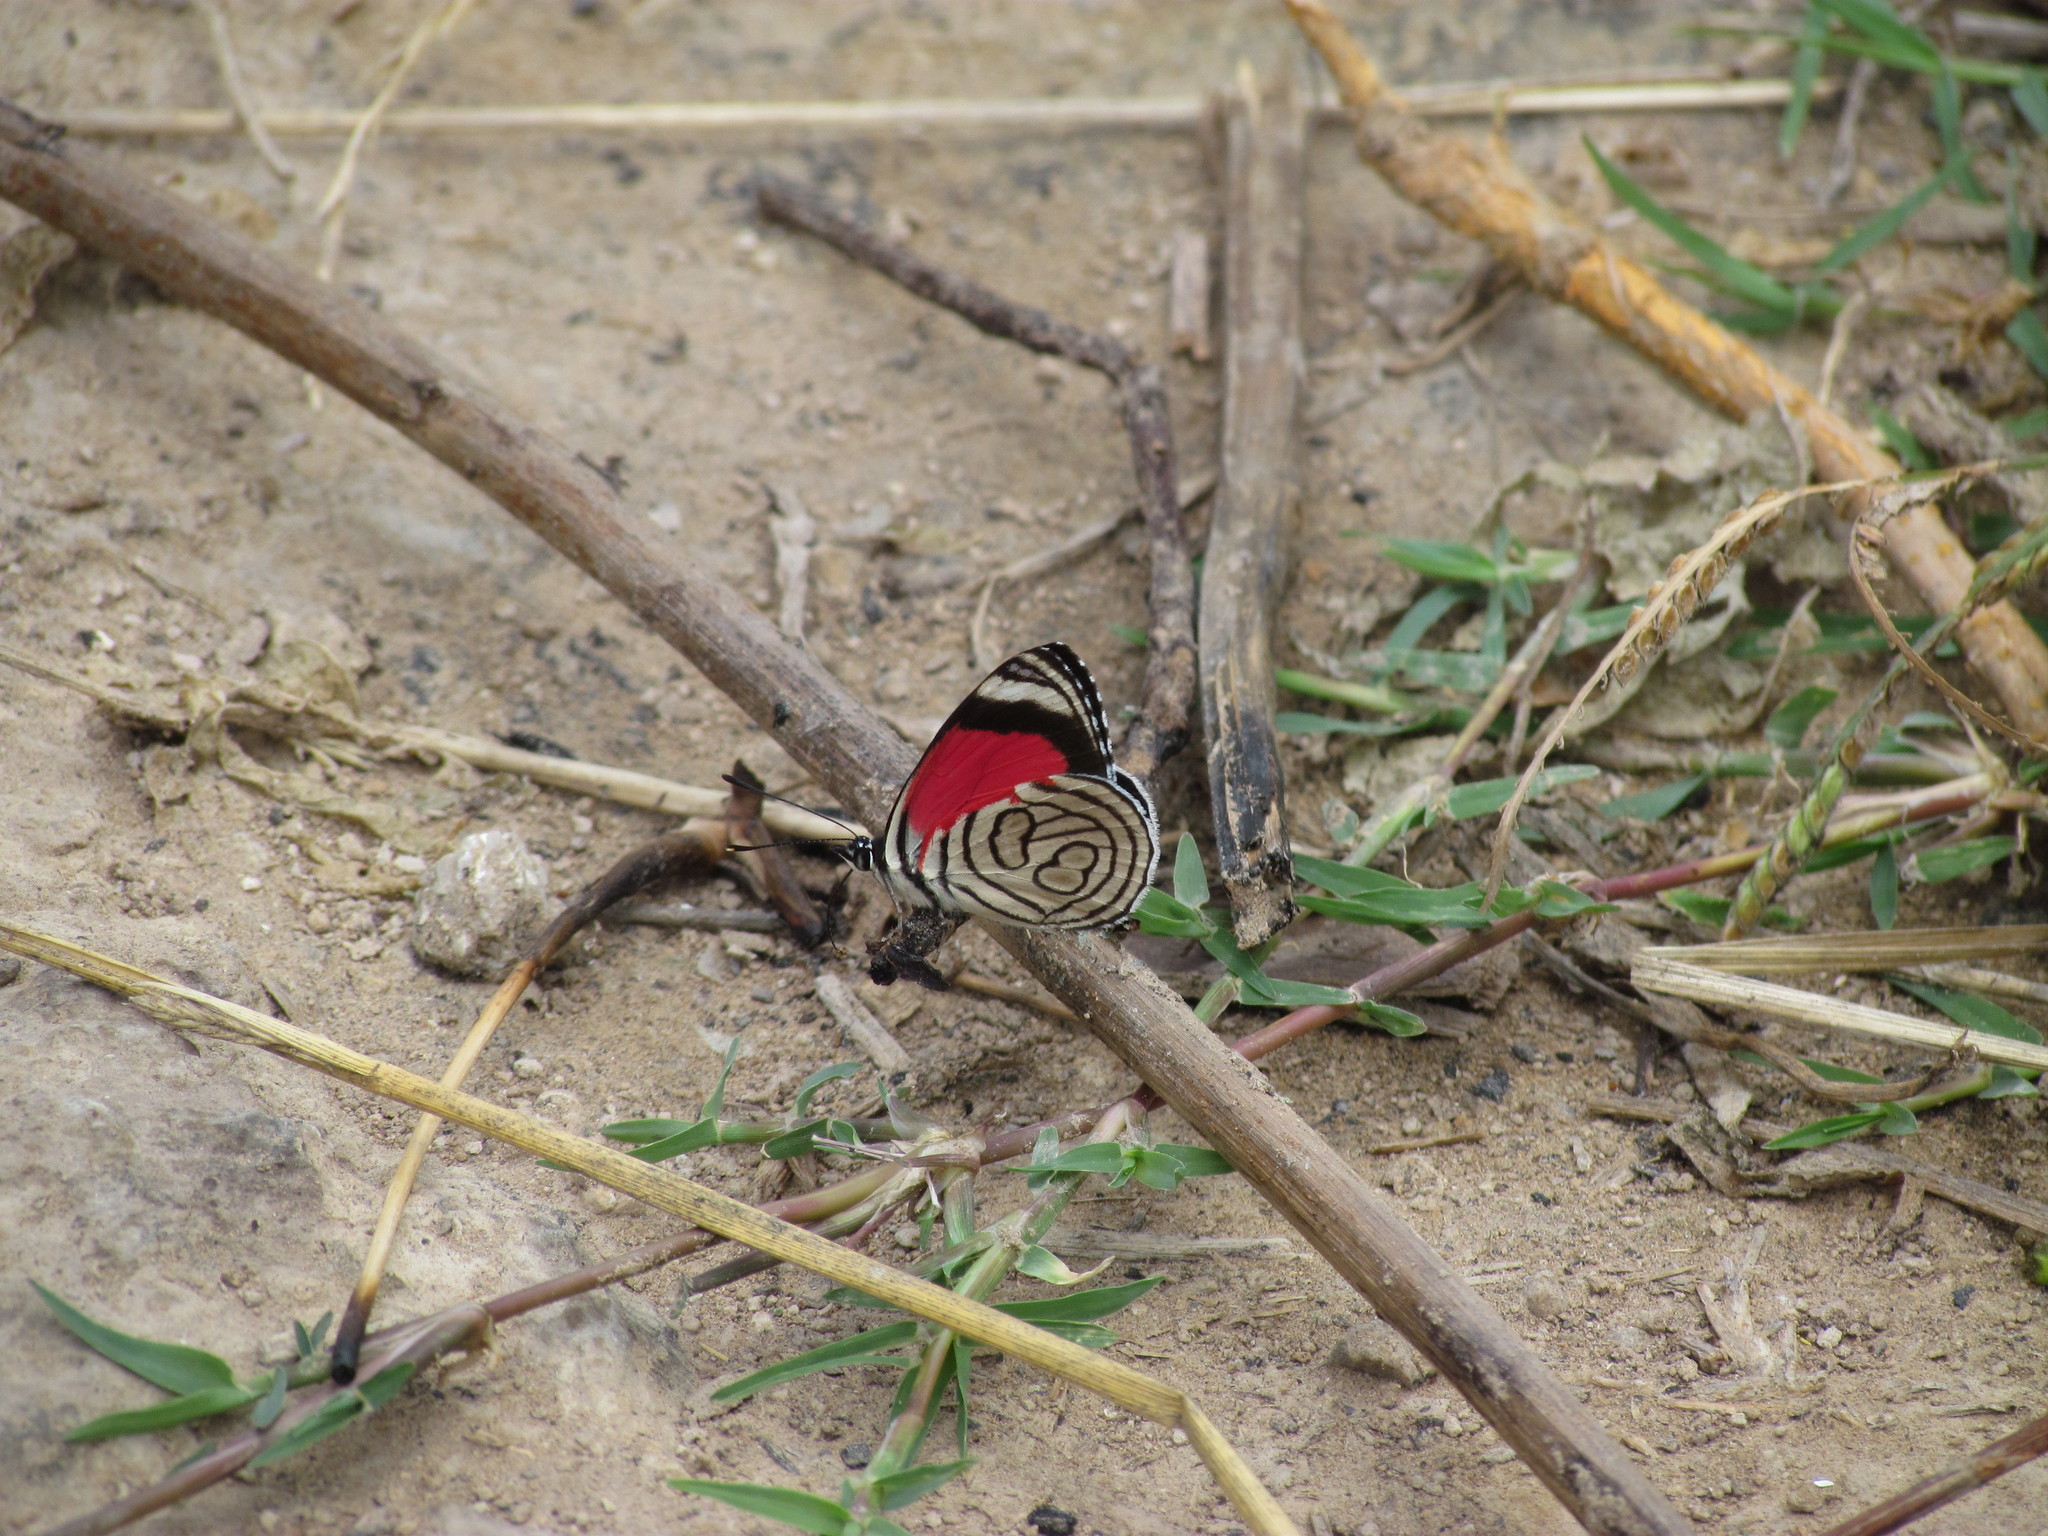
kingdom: Animalia
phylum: Arthropoda
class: Insecta
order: Lepidoptera
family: Nymphalidae
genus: Diaethria
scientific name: Diaethria candrena
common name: Number eighty
